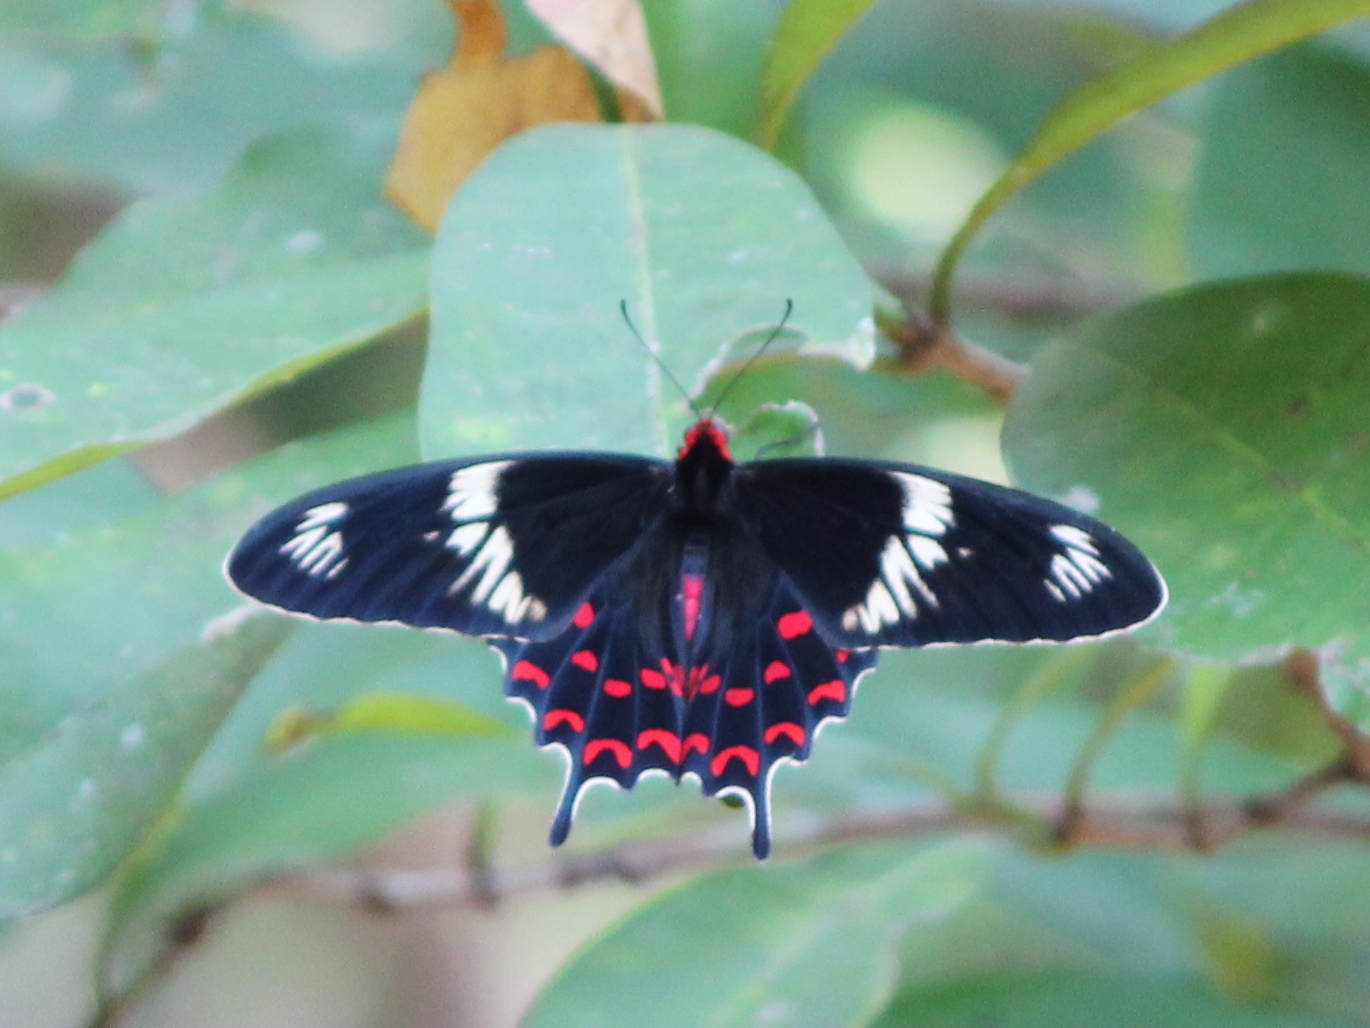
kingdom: Animalia
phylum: Arthropoda
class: Insecta
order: Lepidoptera
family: Papilionidae
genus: Pachliopta
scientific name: Pachliopta hector
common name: Crimson rose
